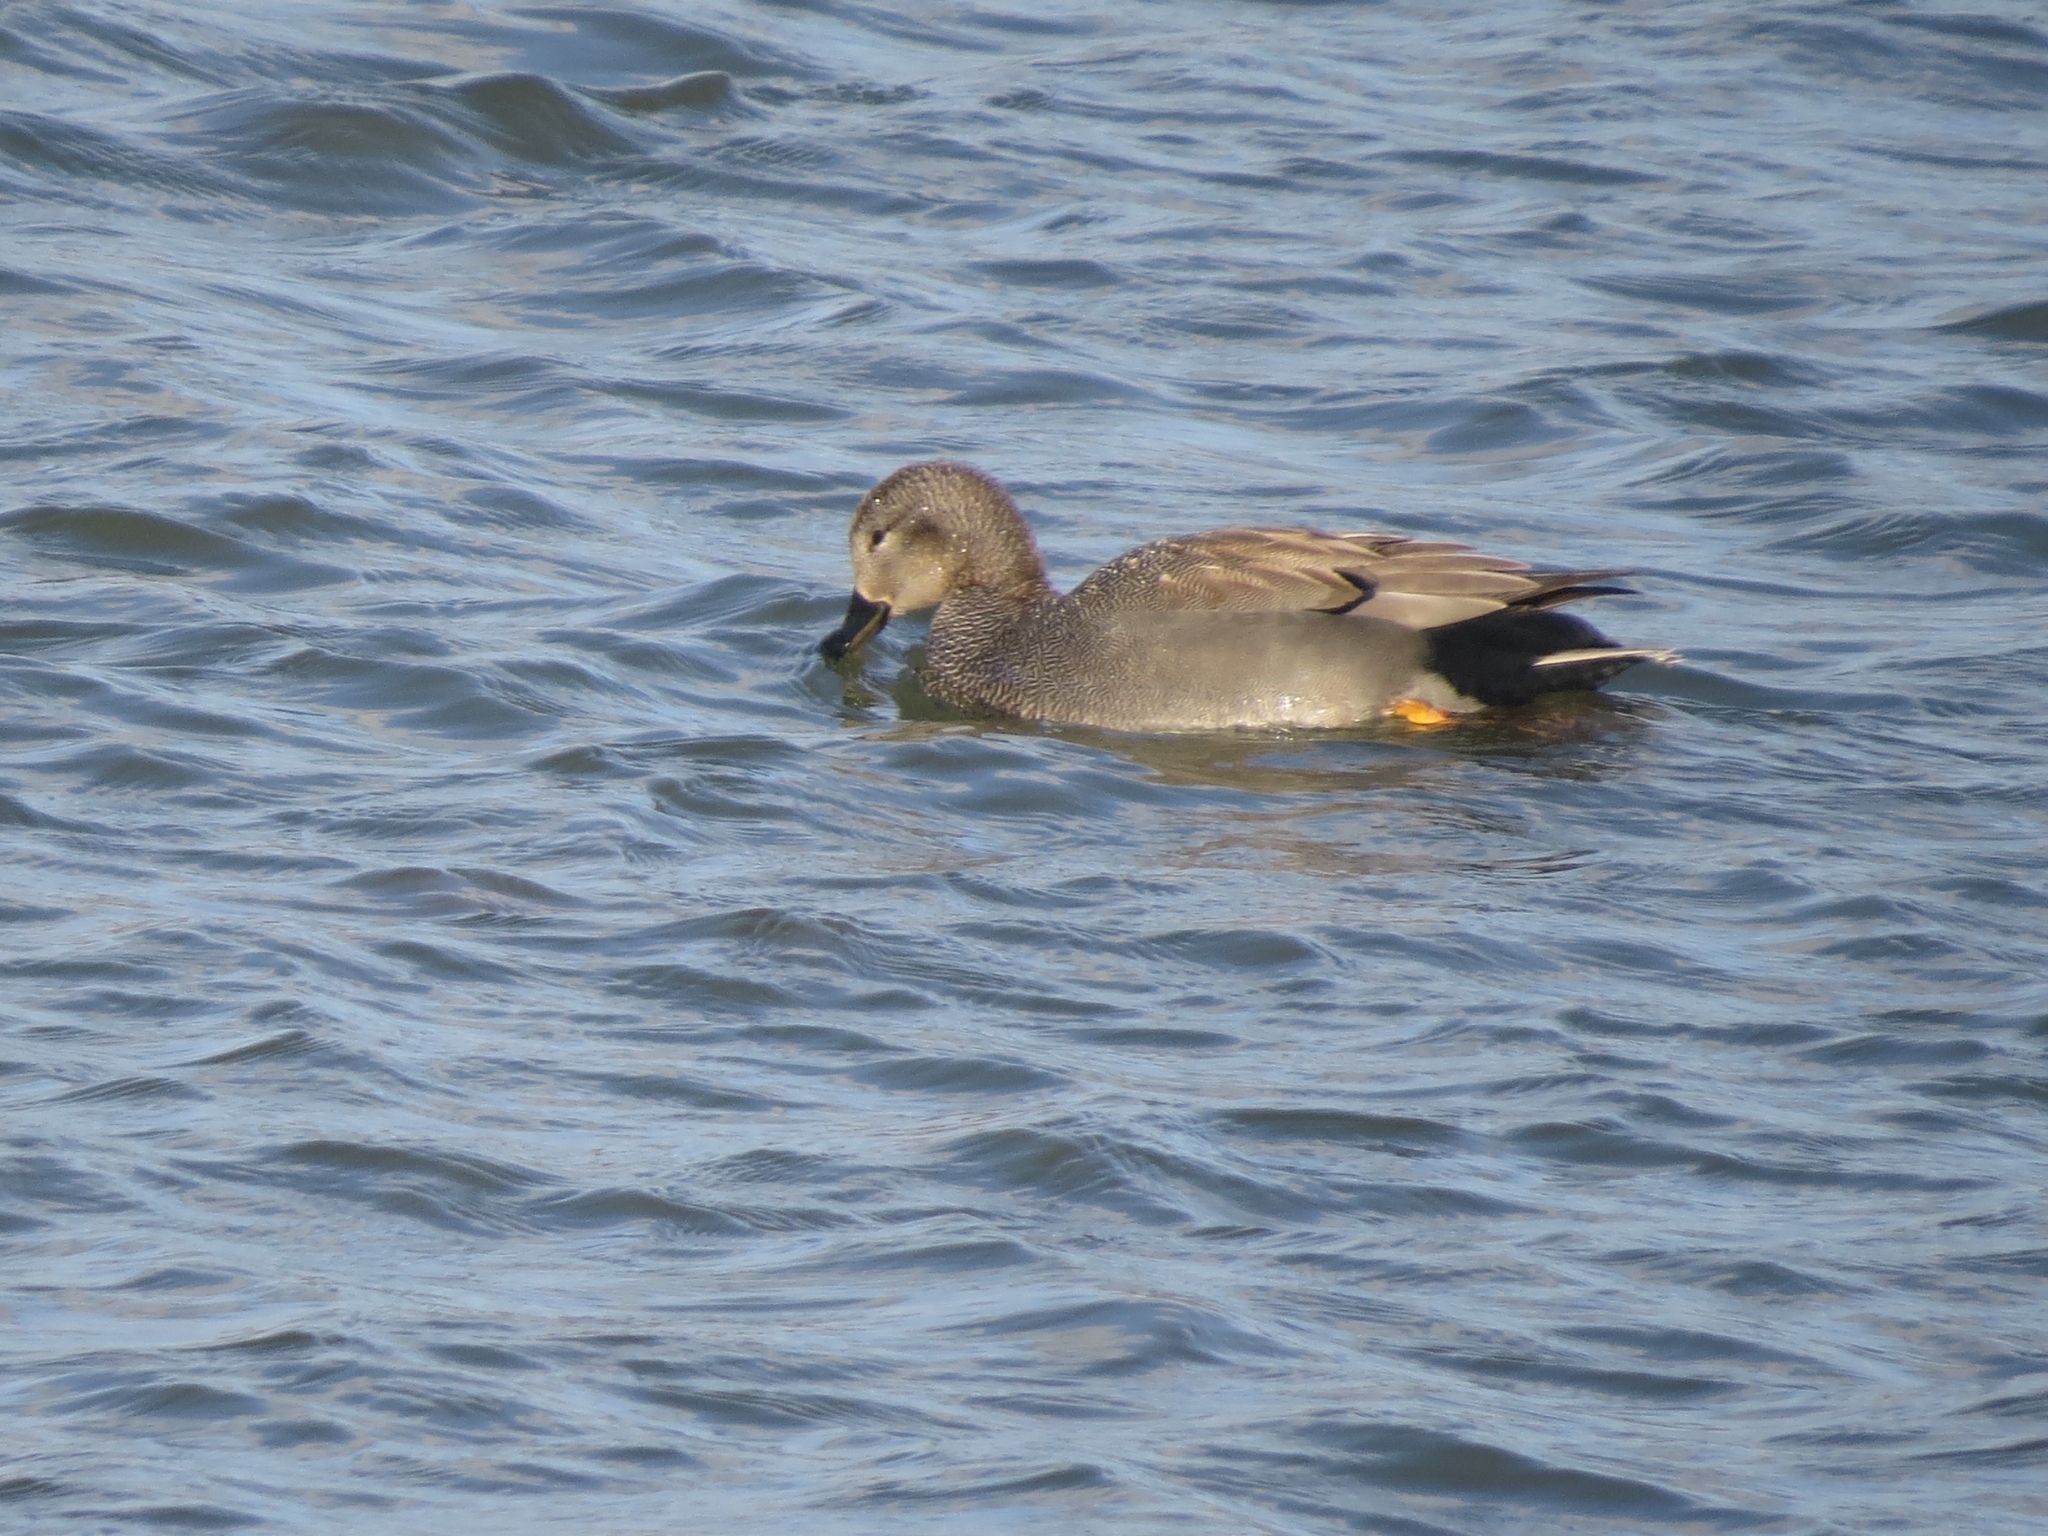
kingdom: Animalia
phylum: Chordata
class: Aves
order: Anseriformes
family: Anatidae
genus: Mareca
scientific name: Mareca strepera
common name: Gadwall
